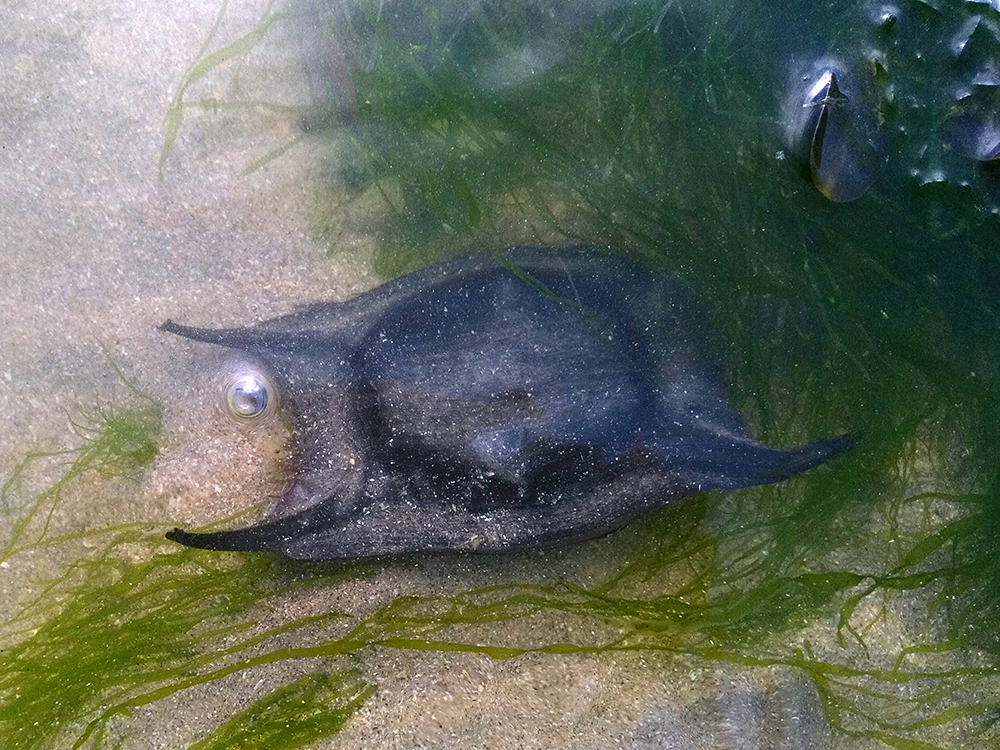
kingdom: Animalia
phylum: Chordata
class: Elasmobranchii
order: Rajiformes
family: Rajidae
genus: Raja
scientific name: Raja clavata
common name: Thornback ray
